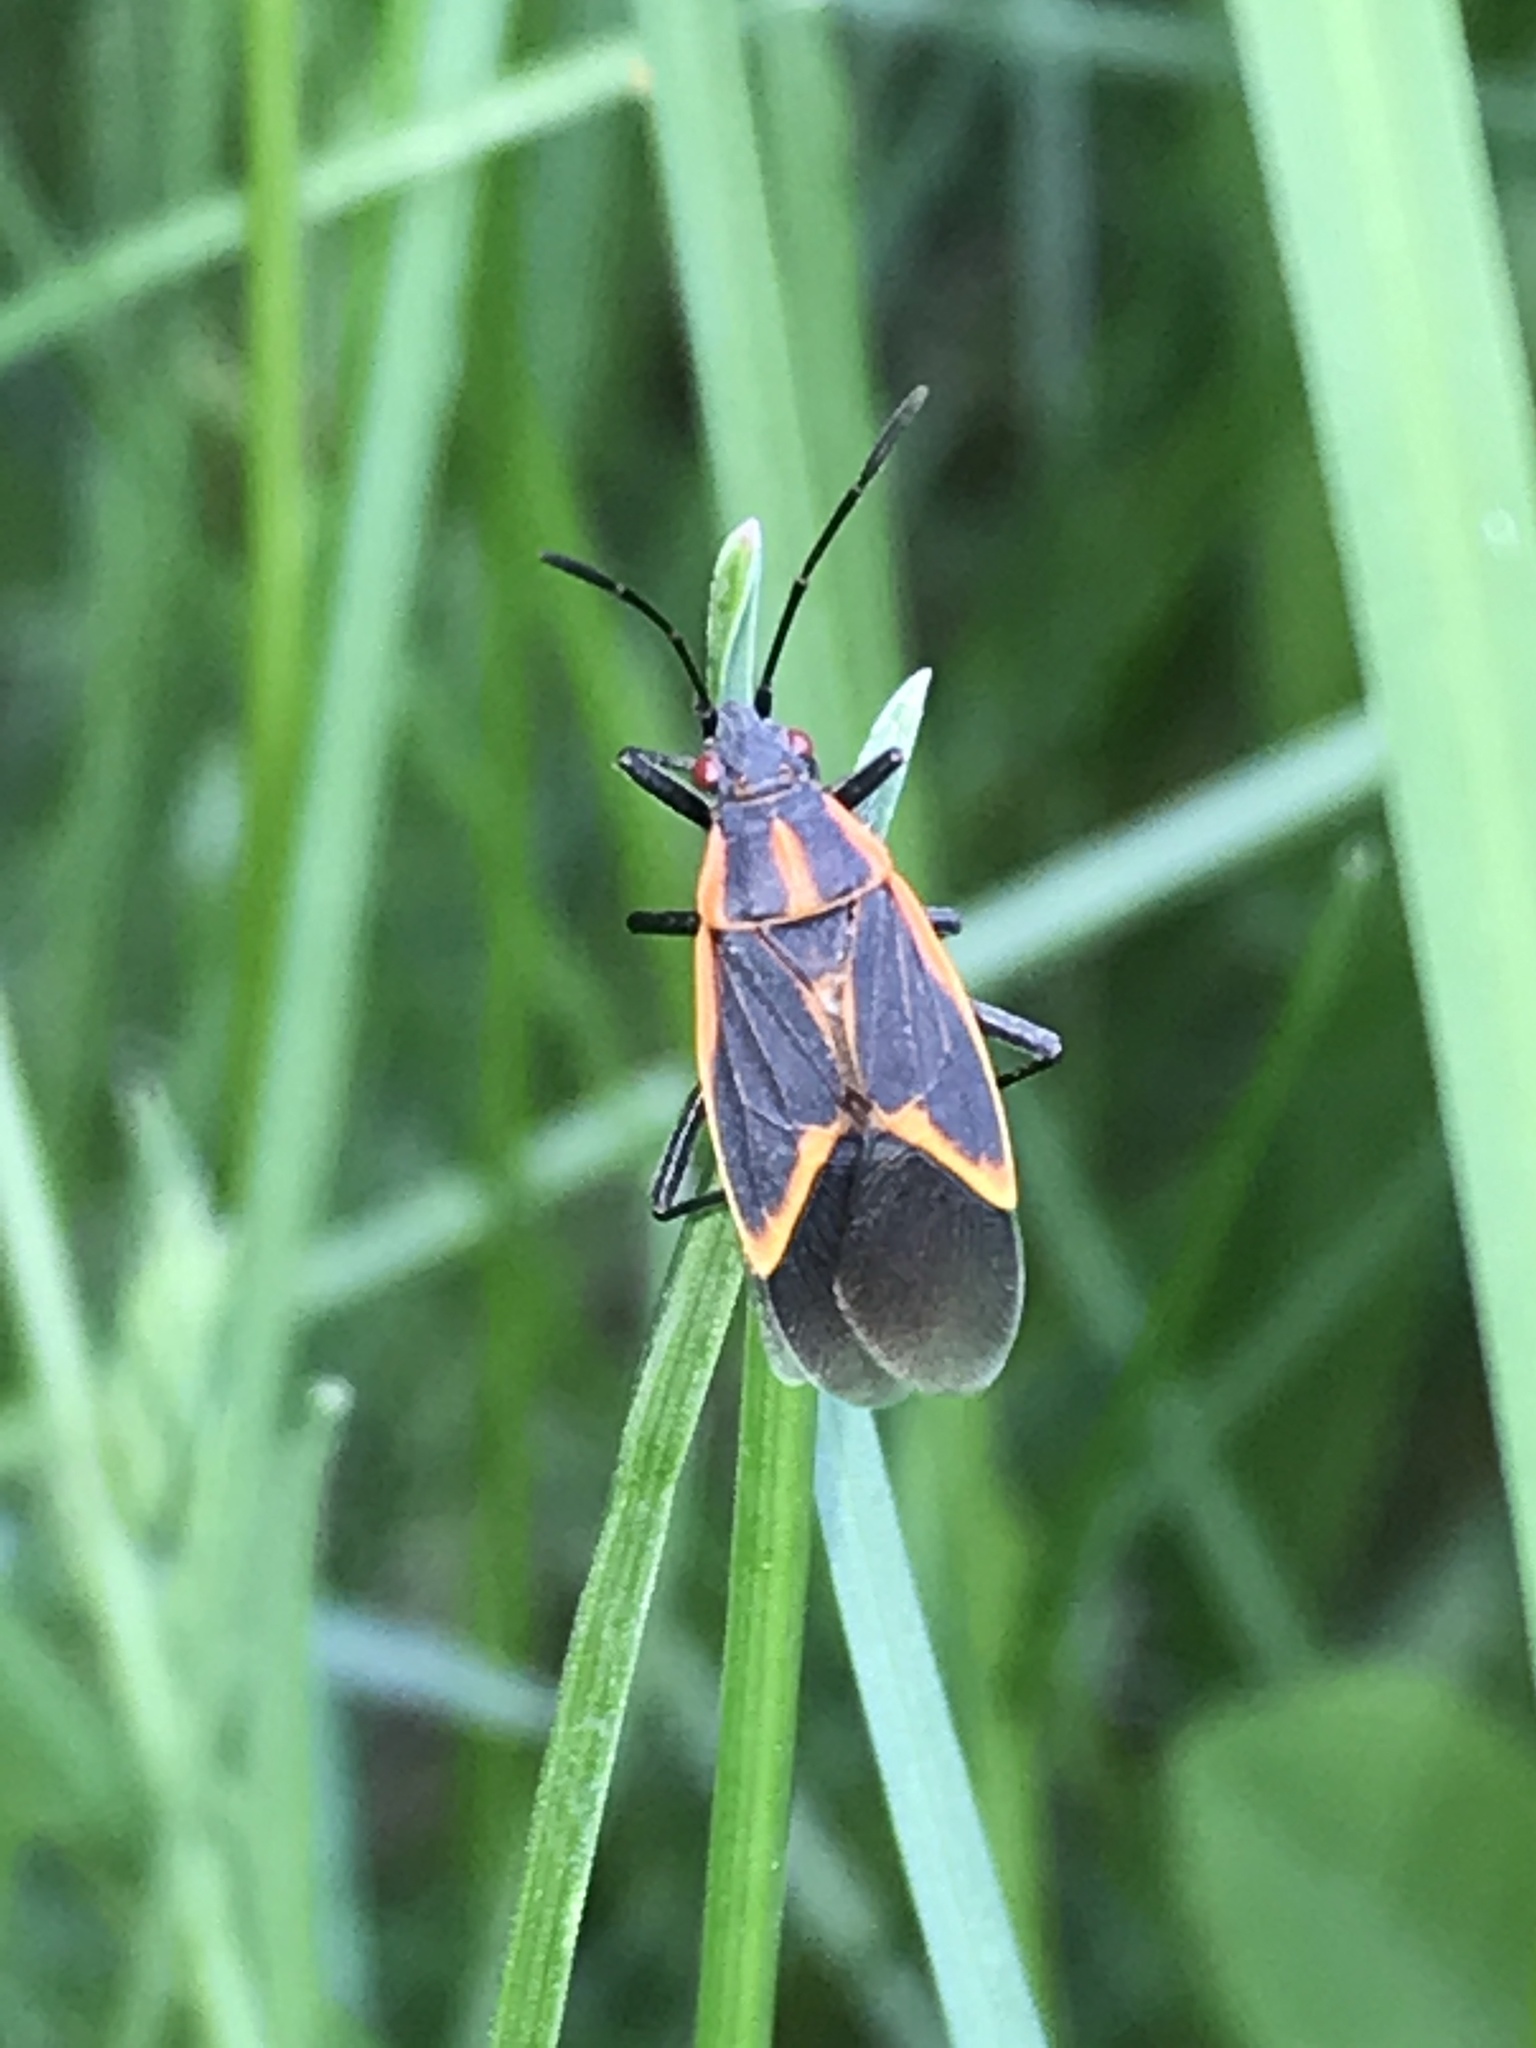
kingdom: Animalia
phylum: Arthropoda
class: Insecta
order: Hemiptera
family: Rhopalidae
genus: Boisea
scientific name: Boisea trivittata
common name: Boxelder bug
